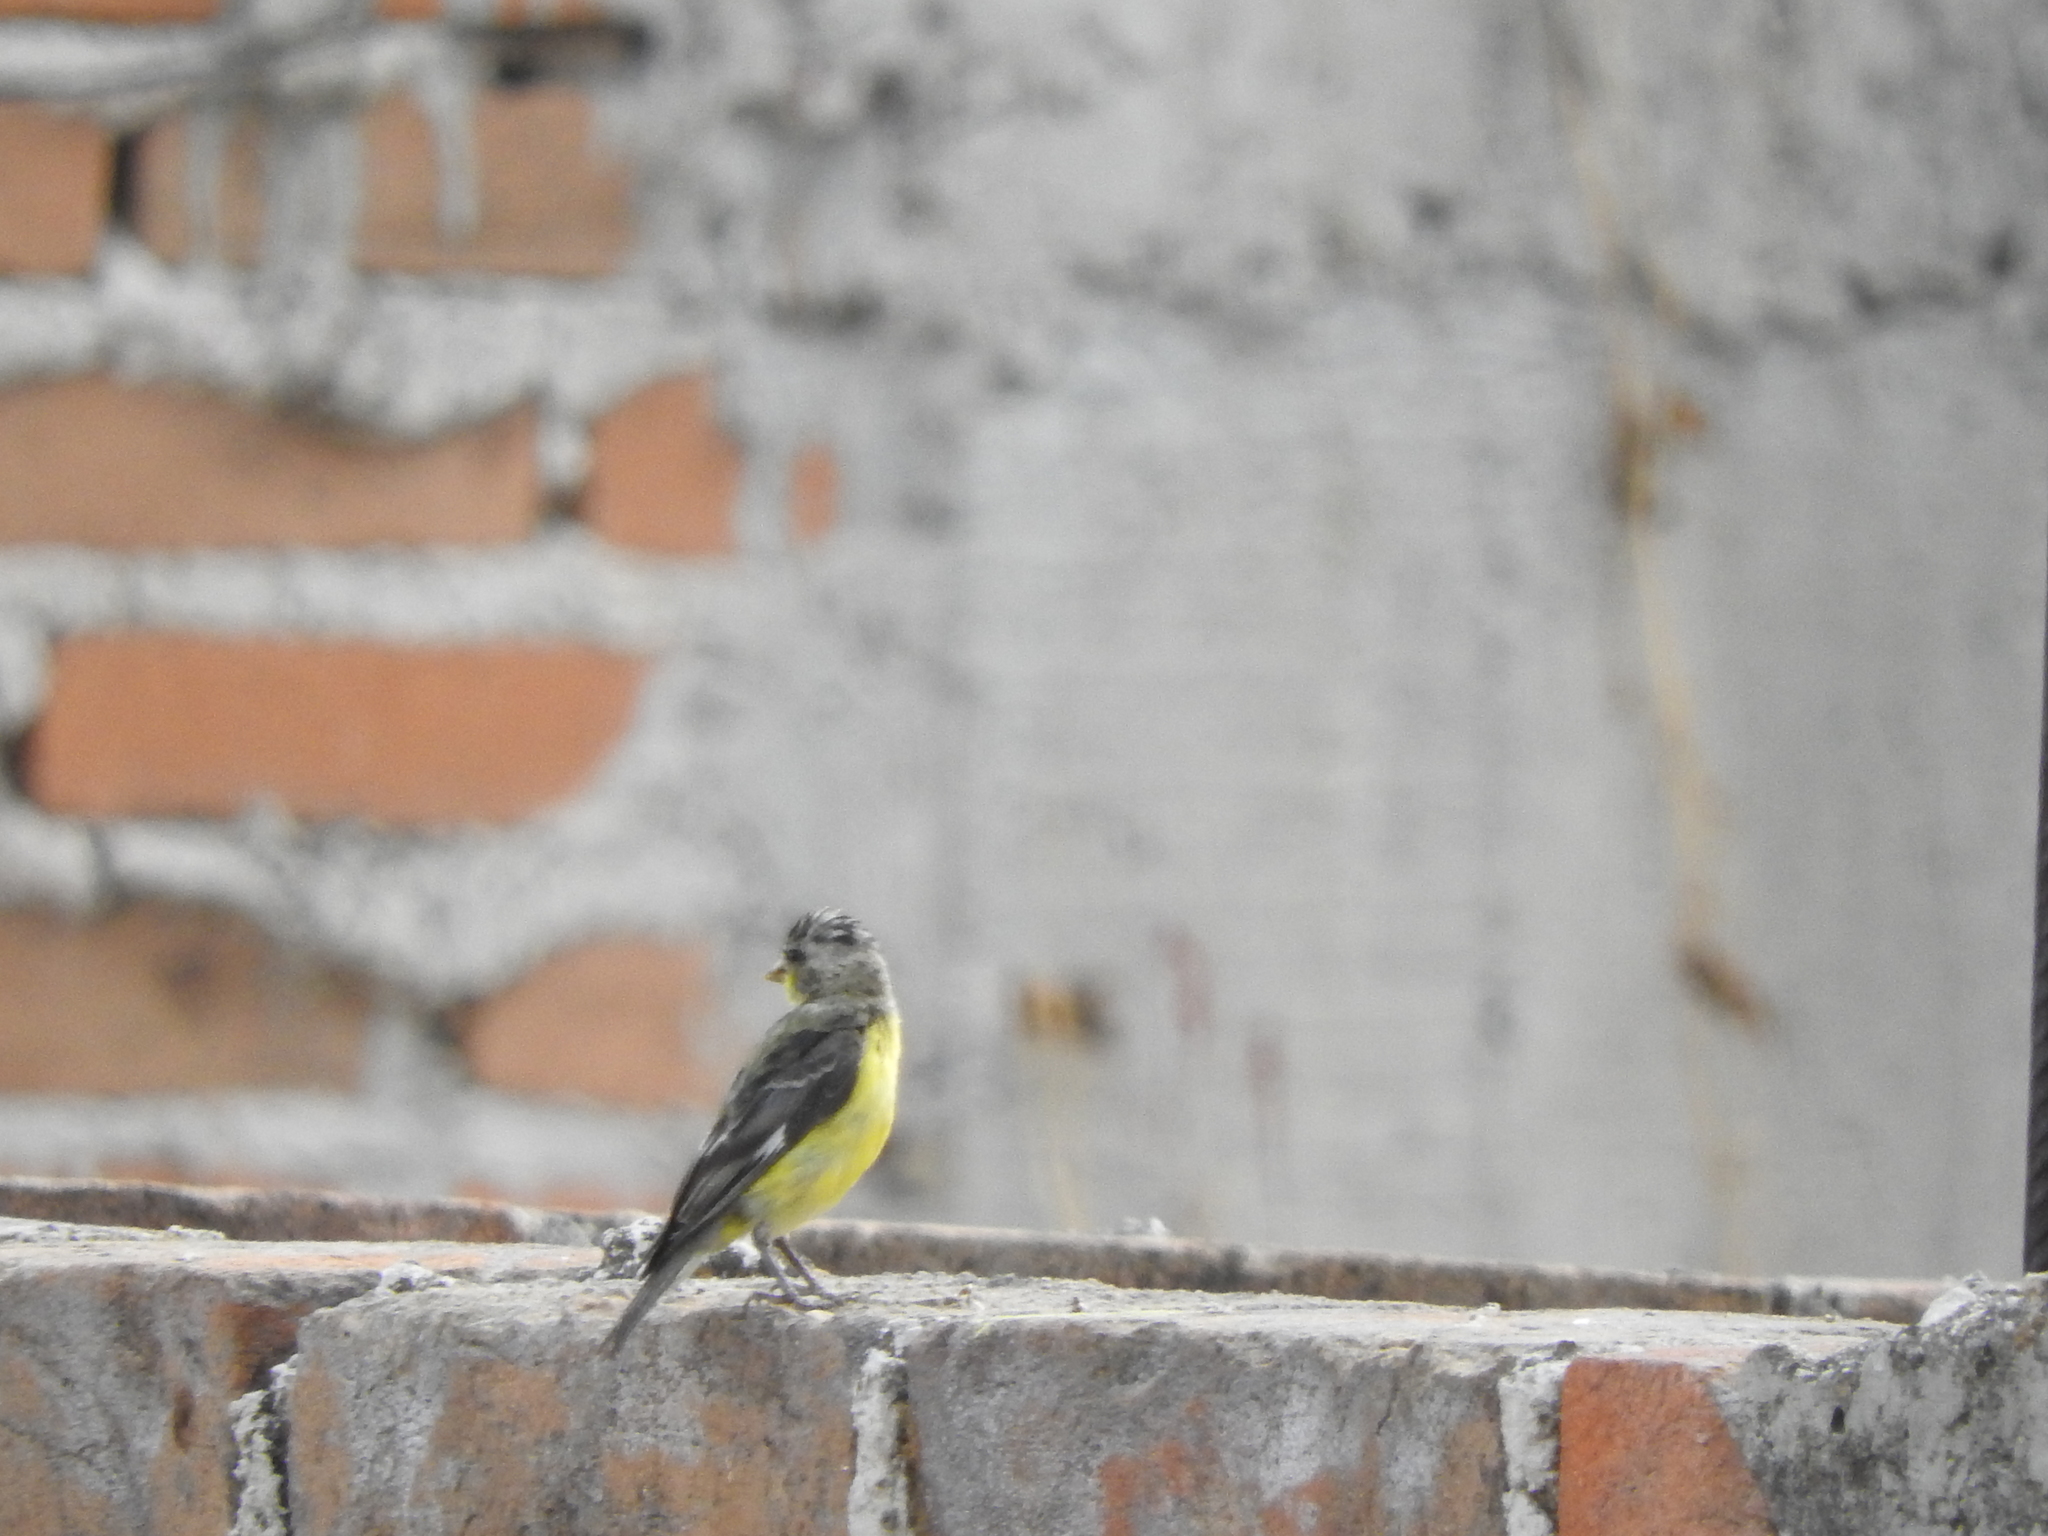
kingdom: Animalia
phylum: Chordata
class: Aves
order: Passeriformes
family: Fringillidae
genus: Spinus
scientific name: Spinus psaltria
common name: Lesser goldfinch
